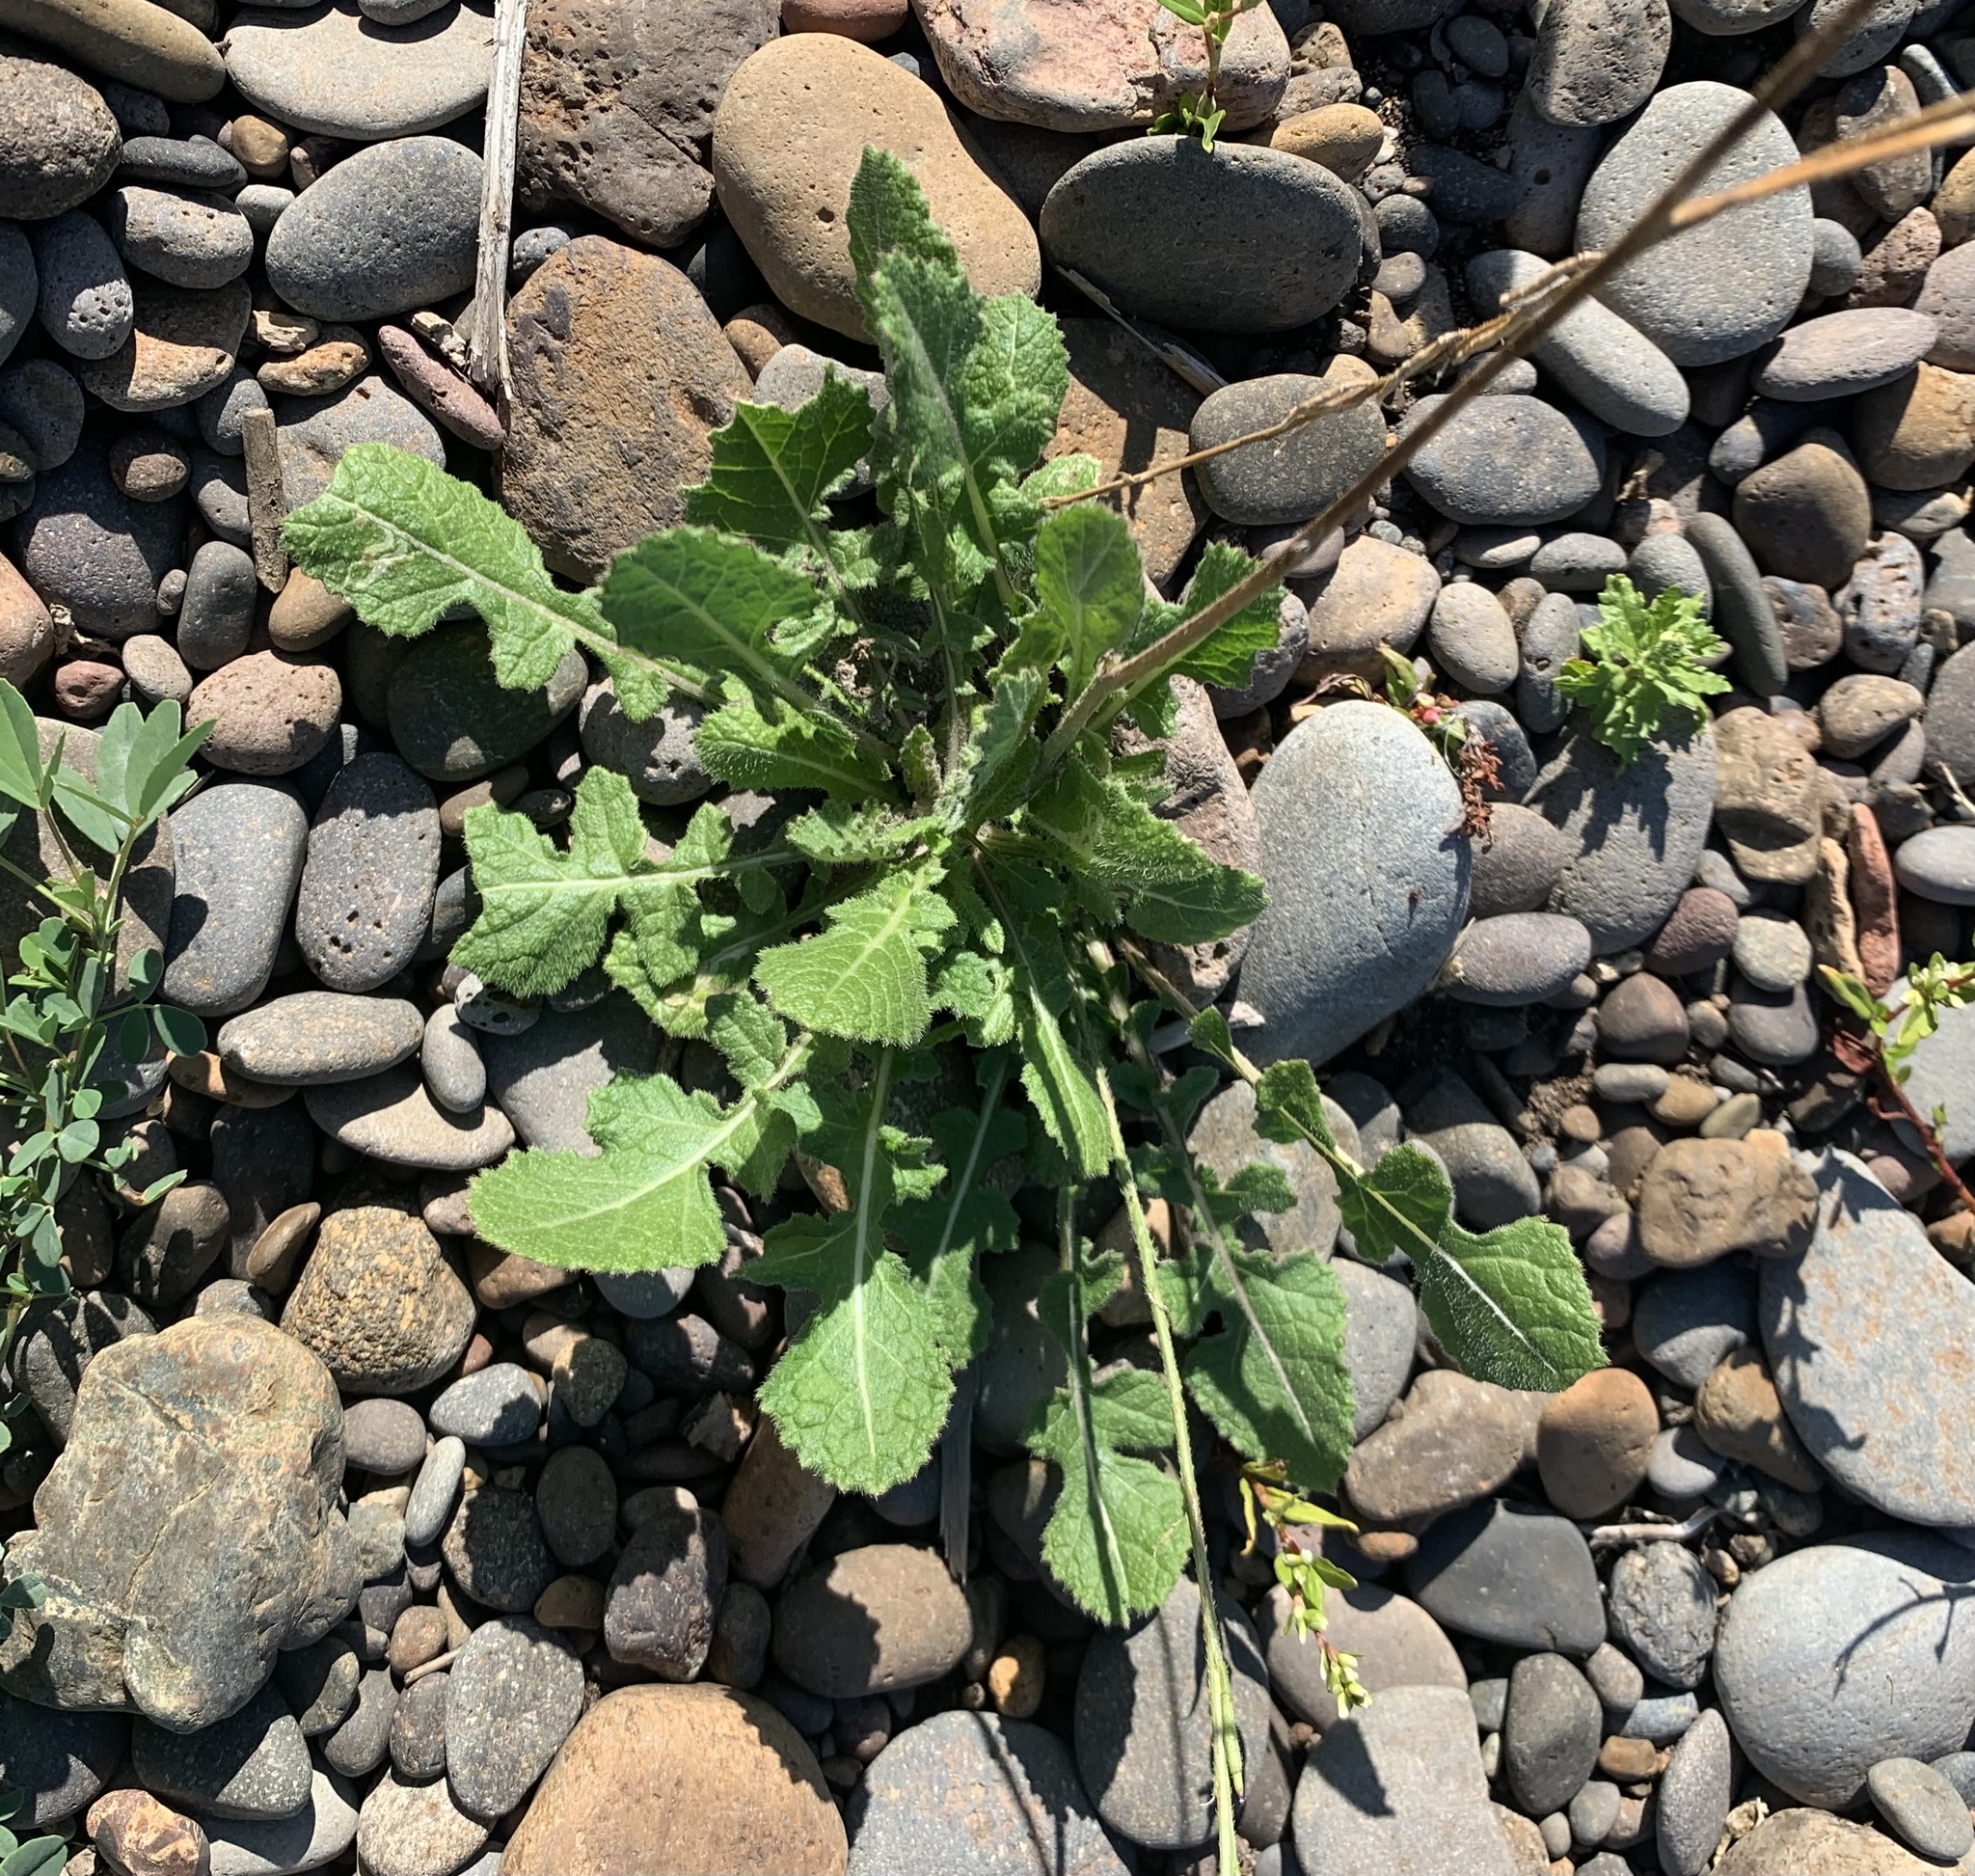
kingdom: Plantae
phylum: Tracheophyta
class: Magnoliopsida
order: Brassicales
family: Brassicaceae
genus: Hirschfeldia
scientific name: Hirschfeldia incana
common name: Hoary mustard
